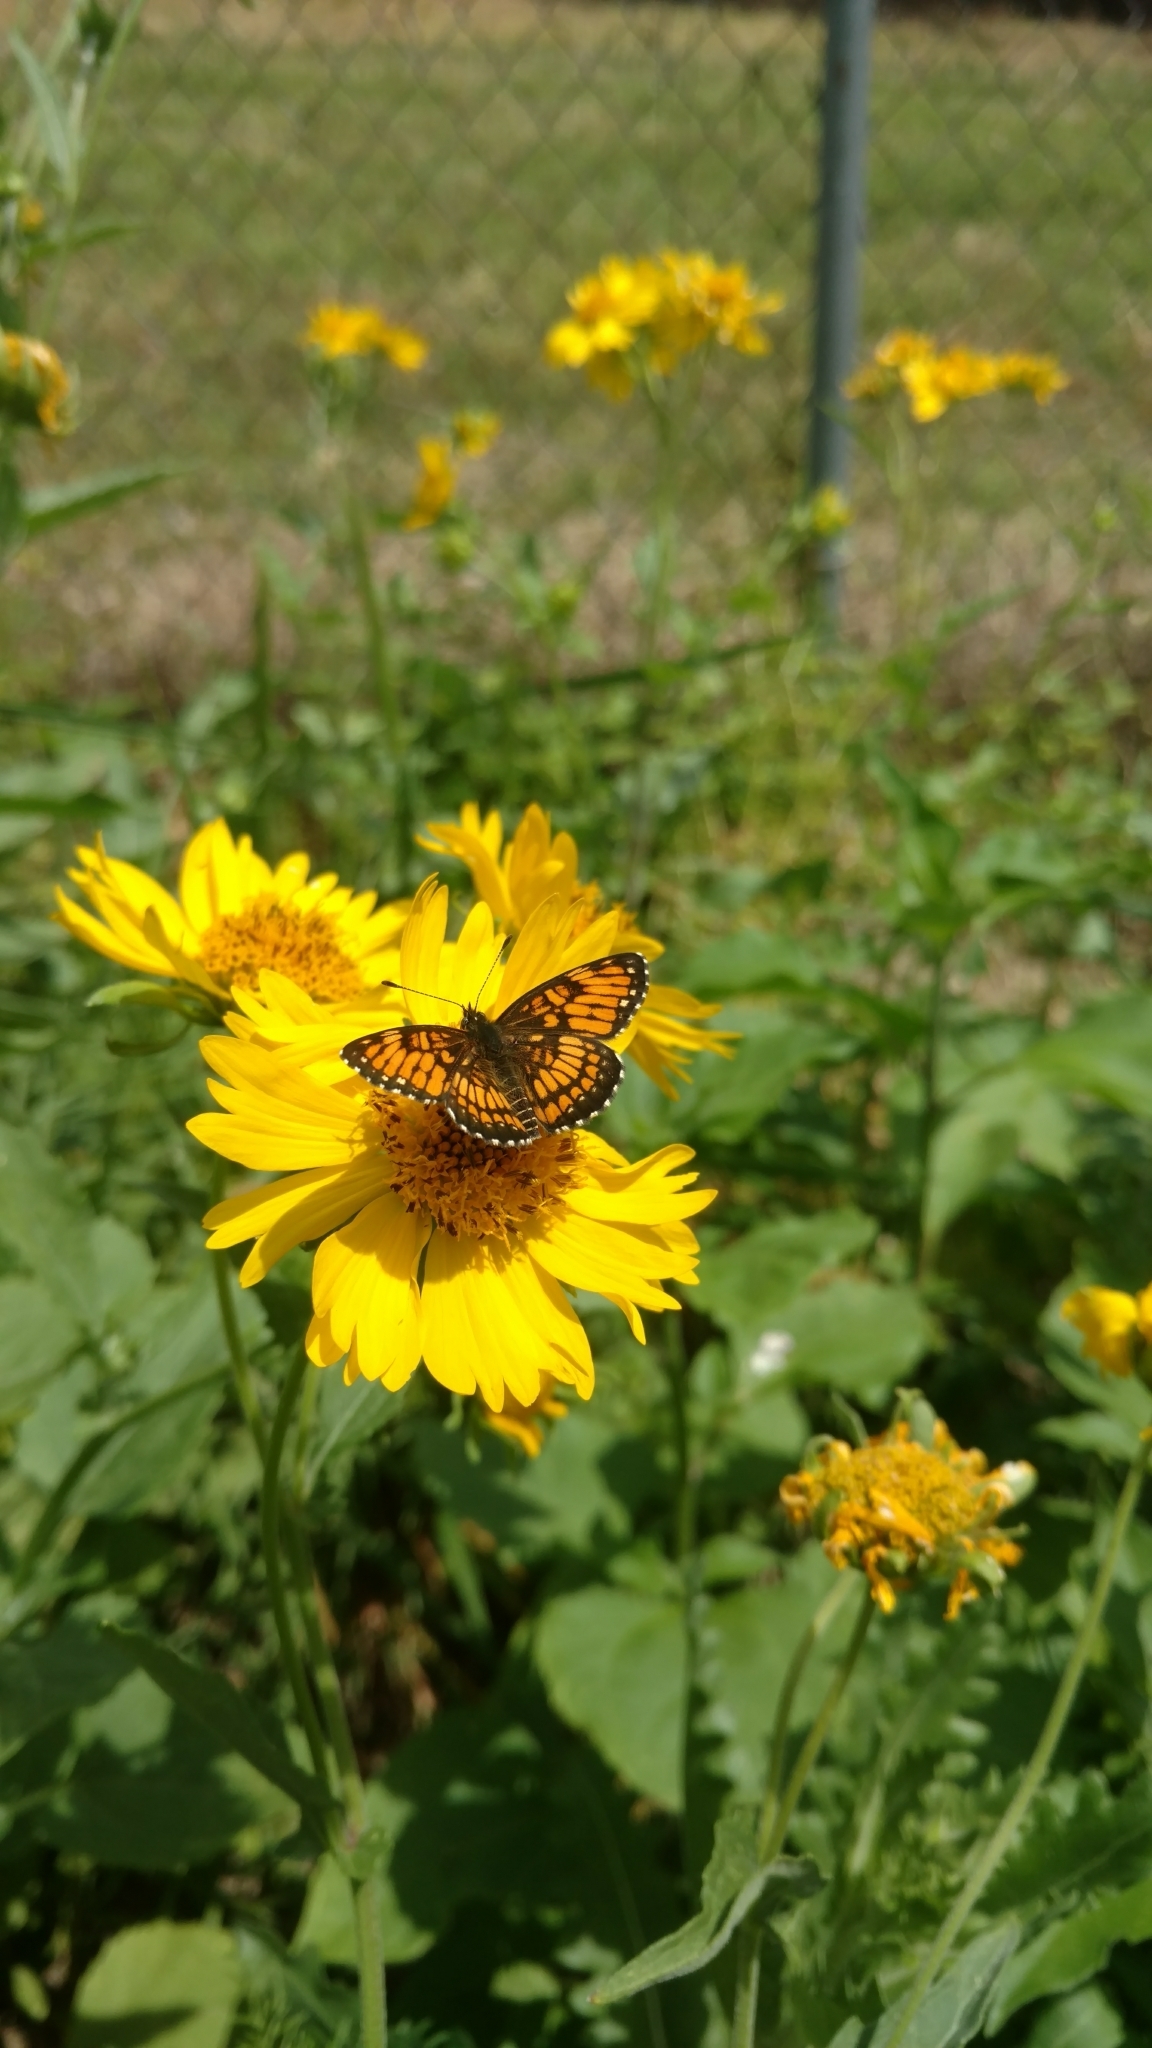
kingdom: Animalia
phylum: Arthropoda
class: Insecta
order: Lepidoptera
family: Nymphalidae
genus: Thessalia
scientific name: Thessalia theona
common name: Nymphalid moth
